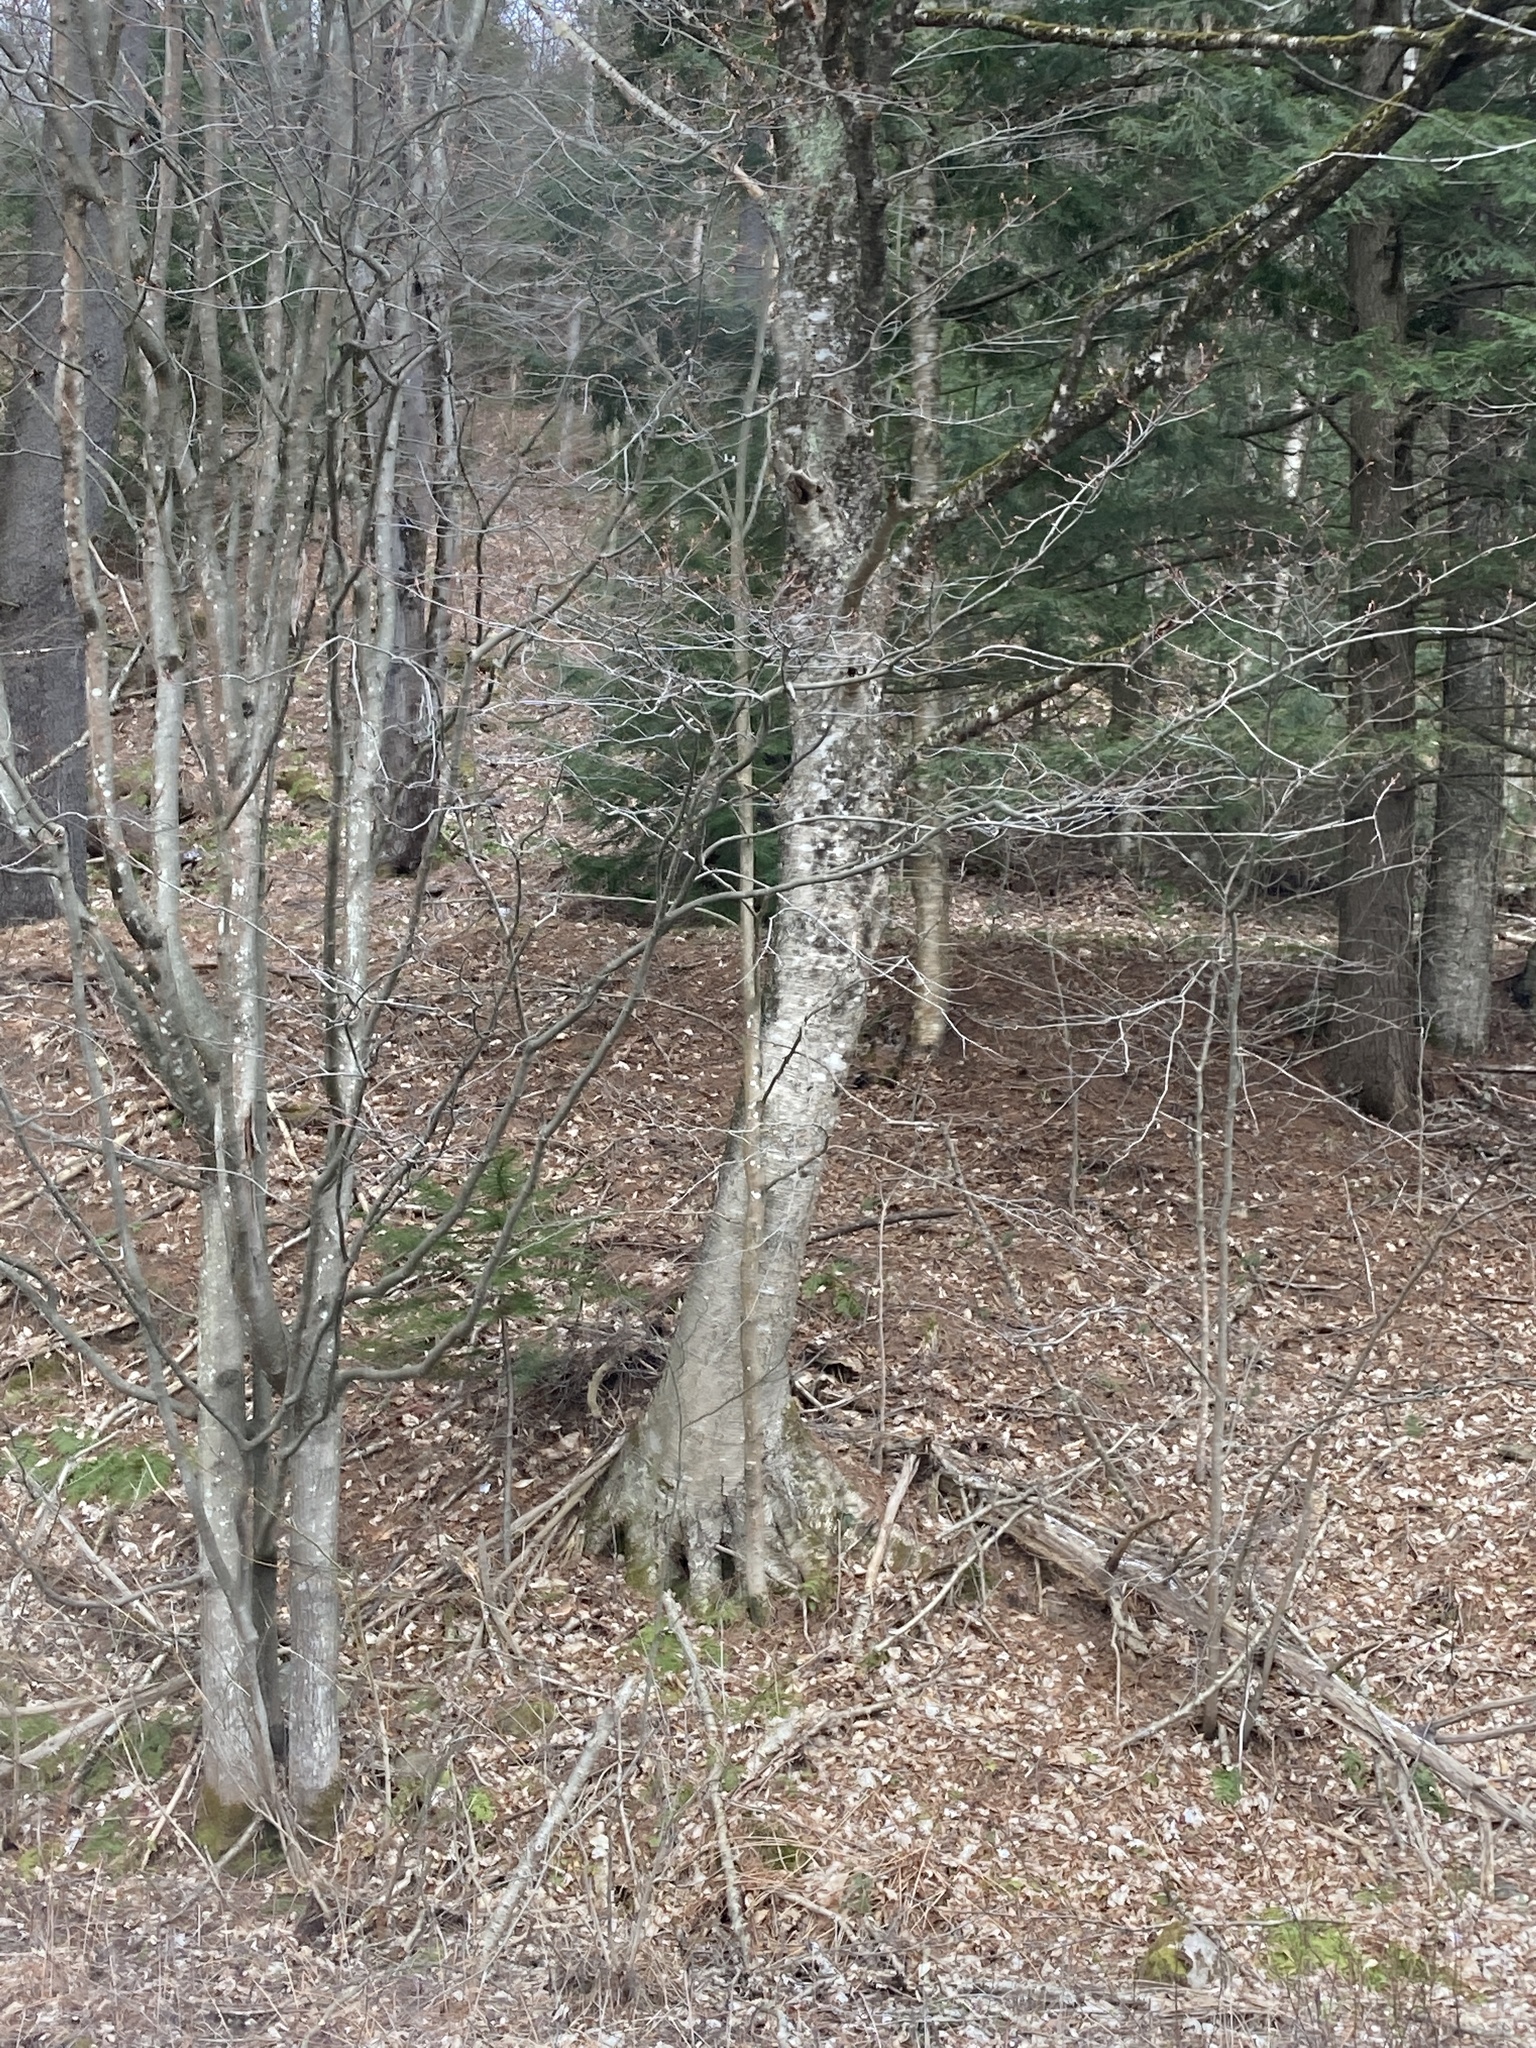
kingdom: Plantae
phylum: Tracheophyta
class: Magnoliopsida
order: Fagales
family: Betulaceae
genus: Betula
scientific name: Betula alleghaniensis
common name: Yellow birch
